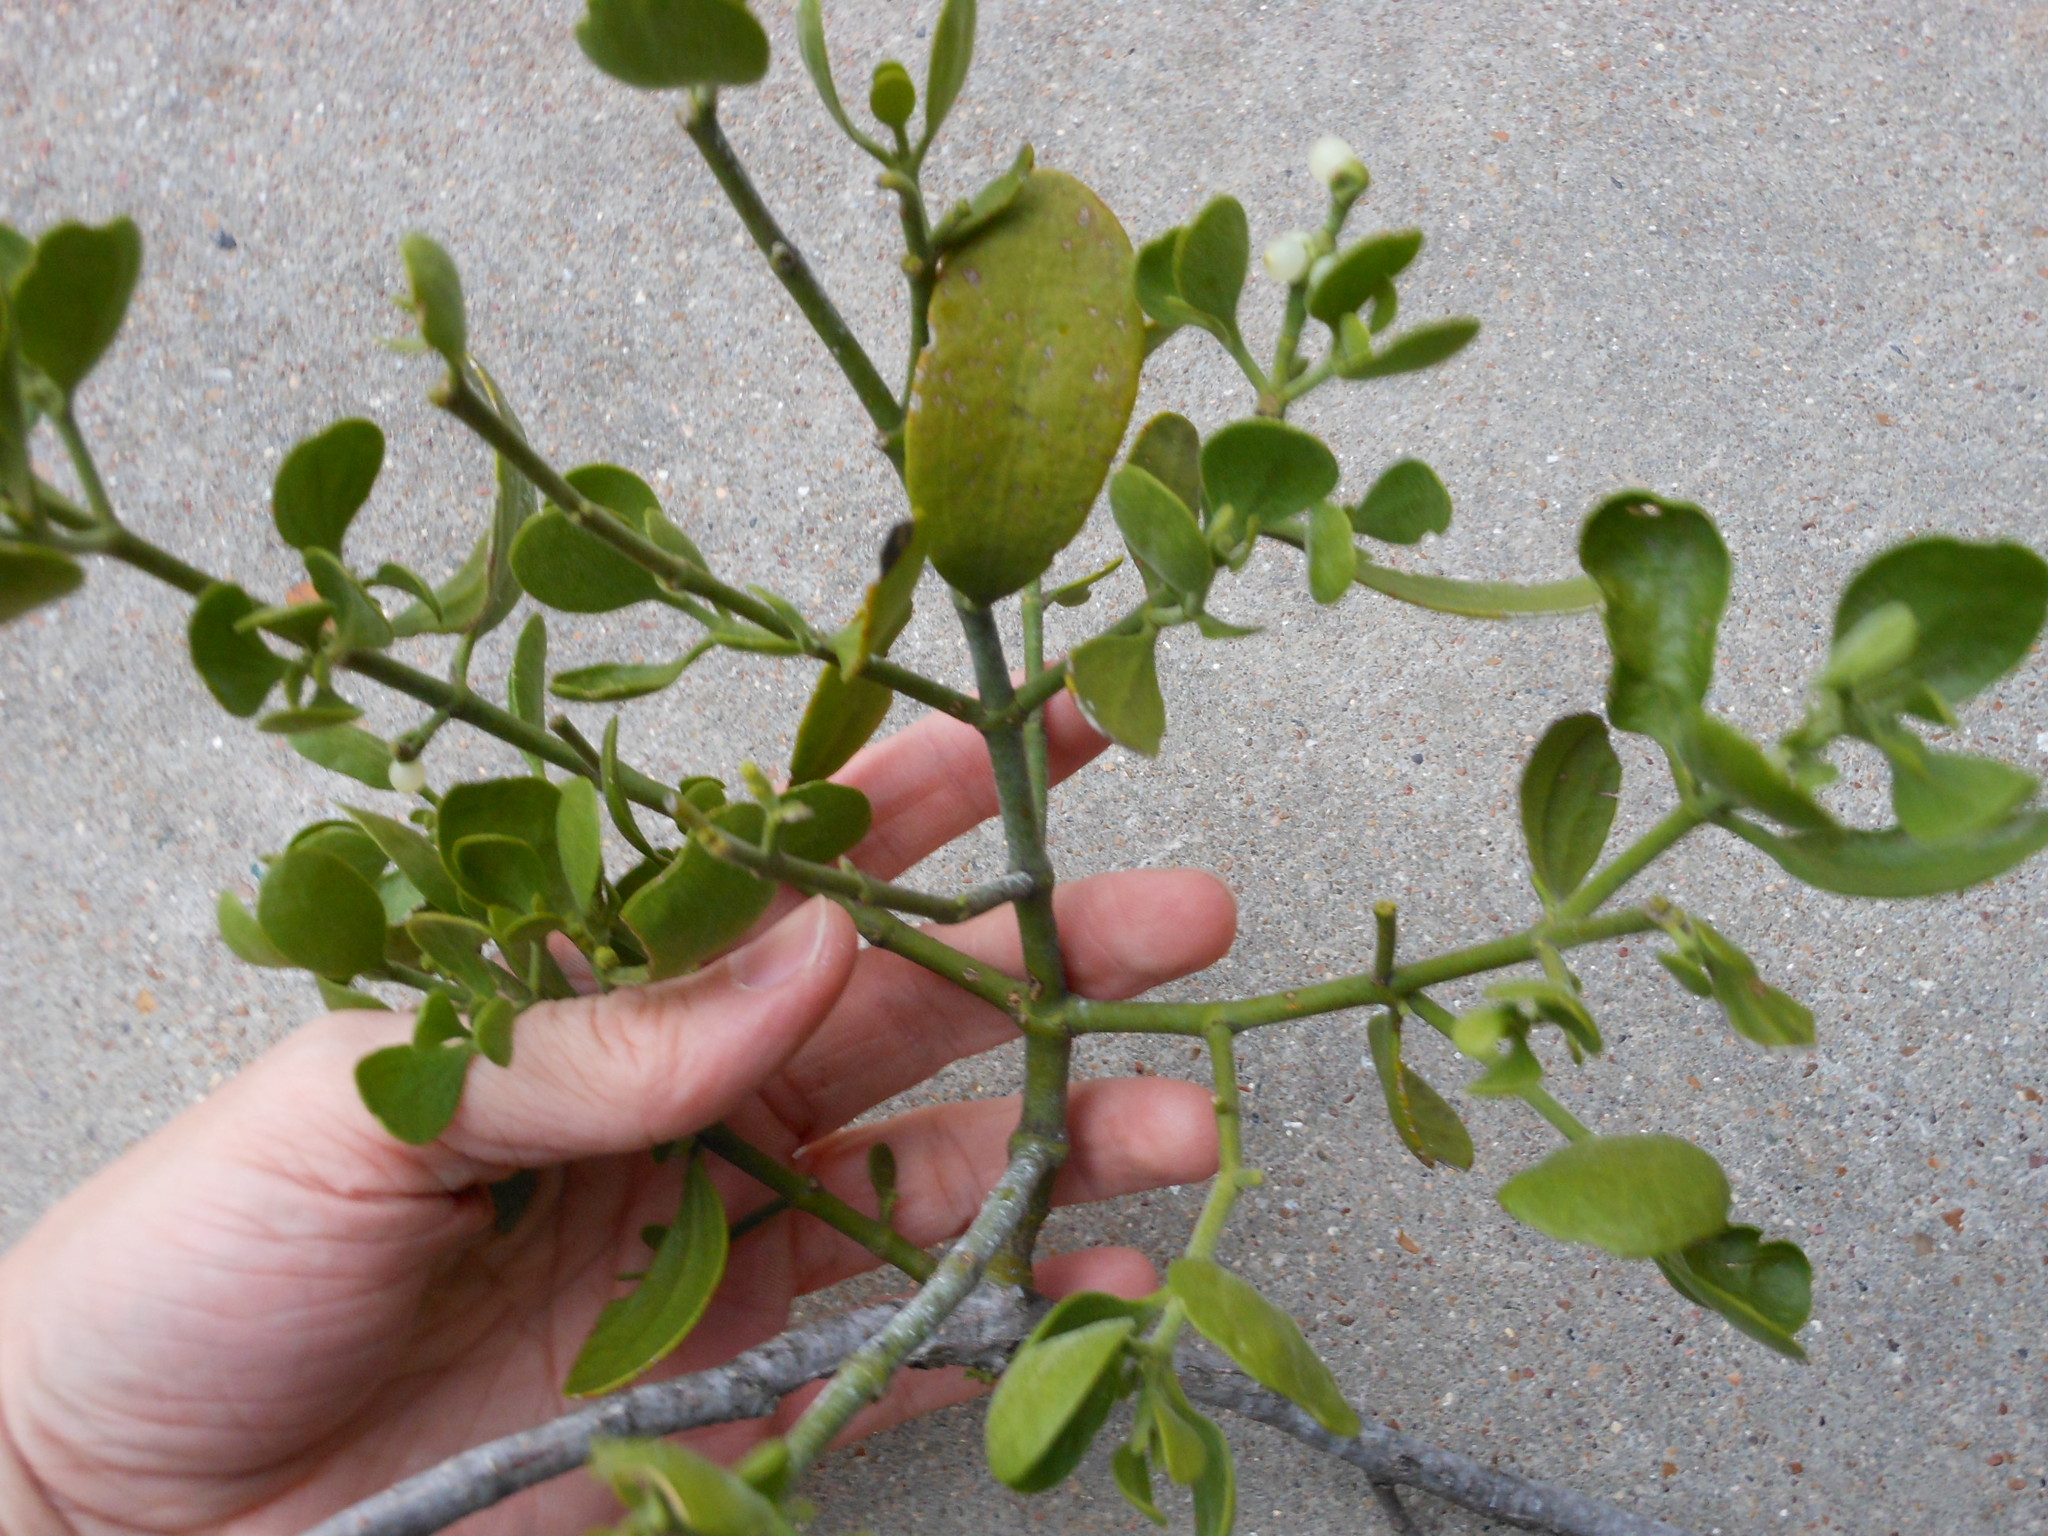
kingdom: Plantae
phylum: Tracheophyta
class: Magnoliopsida
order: Santalales
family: Viscaceae
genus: Phoradendron
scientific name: Phoradendron leucarpum
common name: Pacific mistletoe
